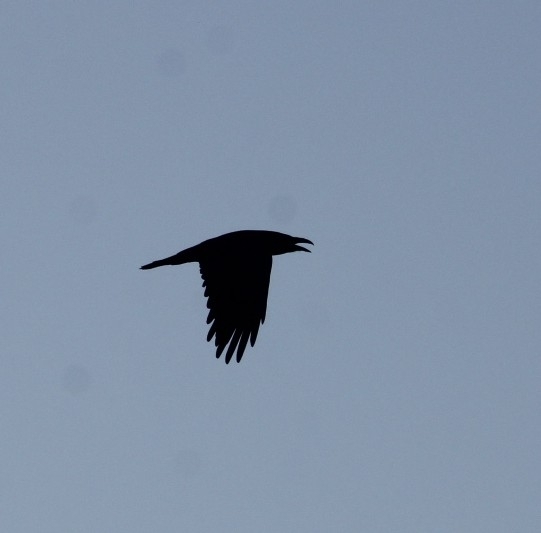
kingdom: Animalia
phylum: Chordata
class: Aves
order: Passeriformes
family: Corvidae
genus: Corvus
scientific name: Corvus corax
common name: Common raven
